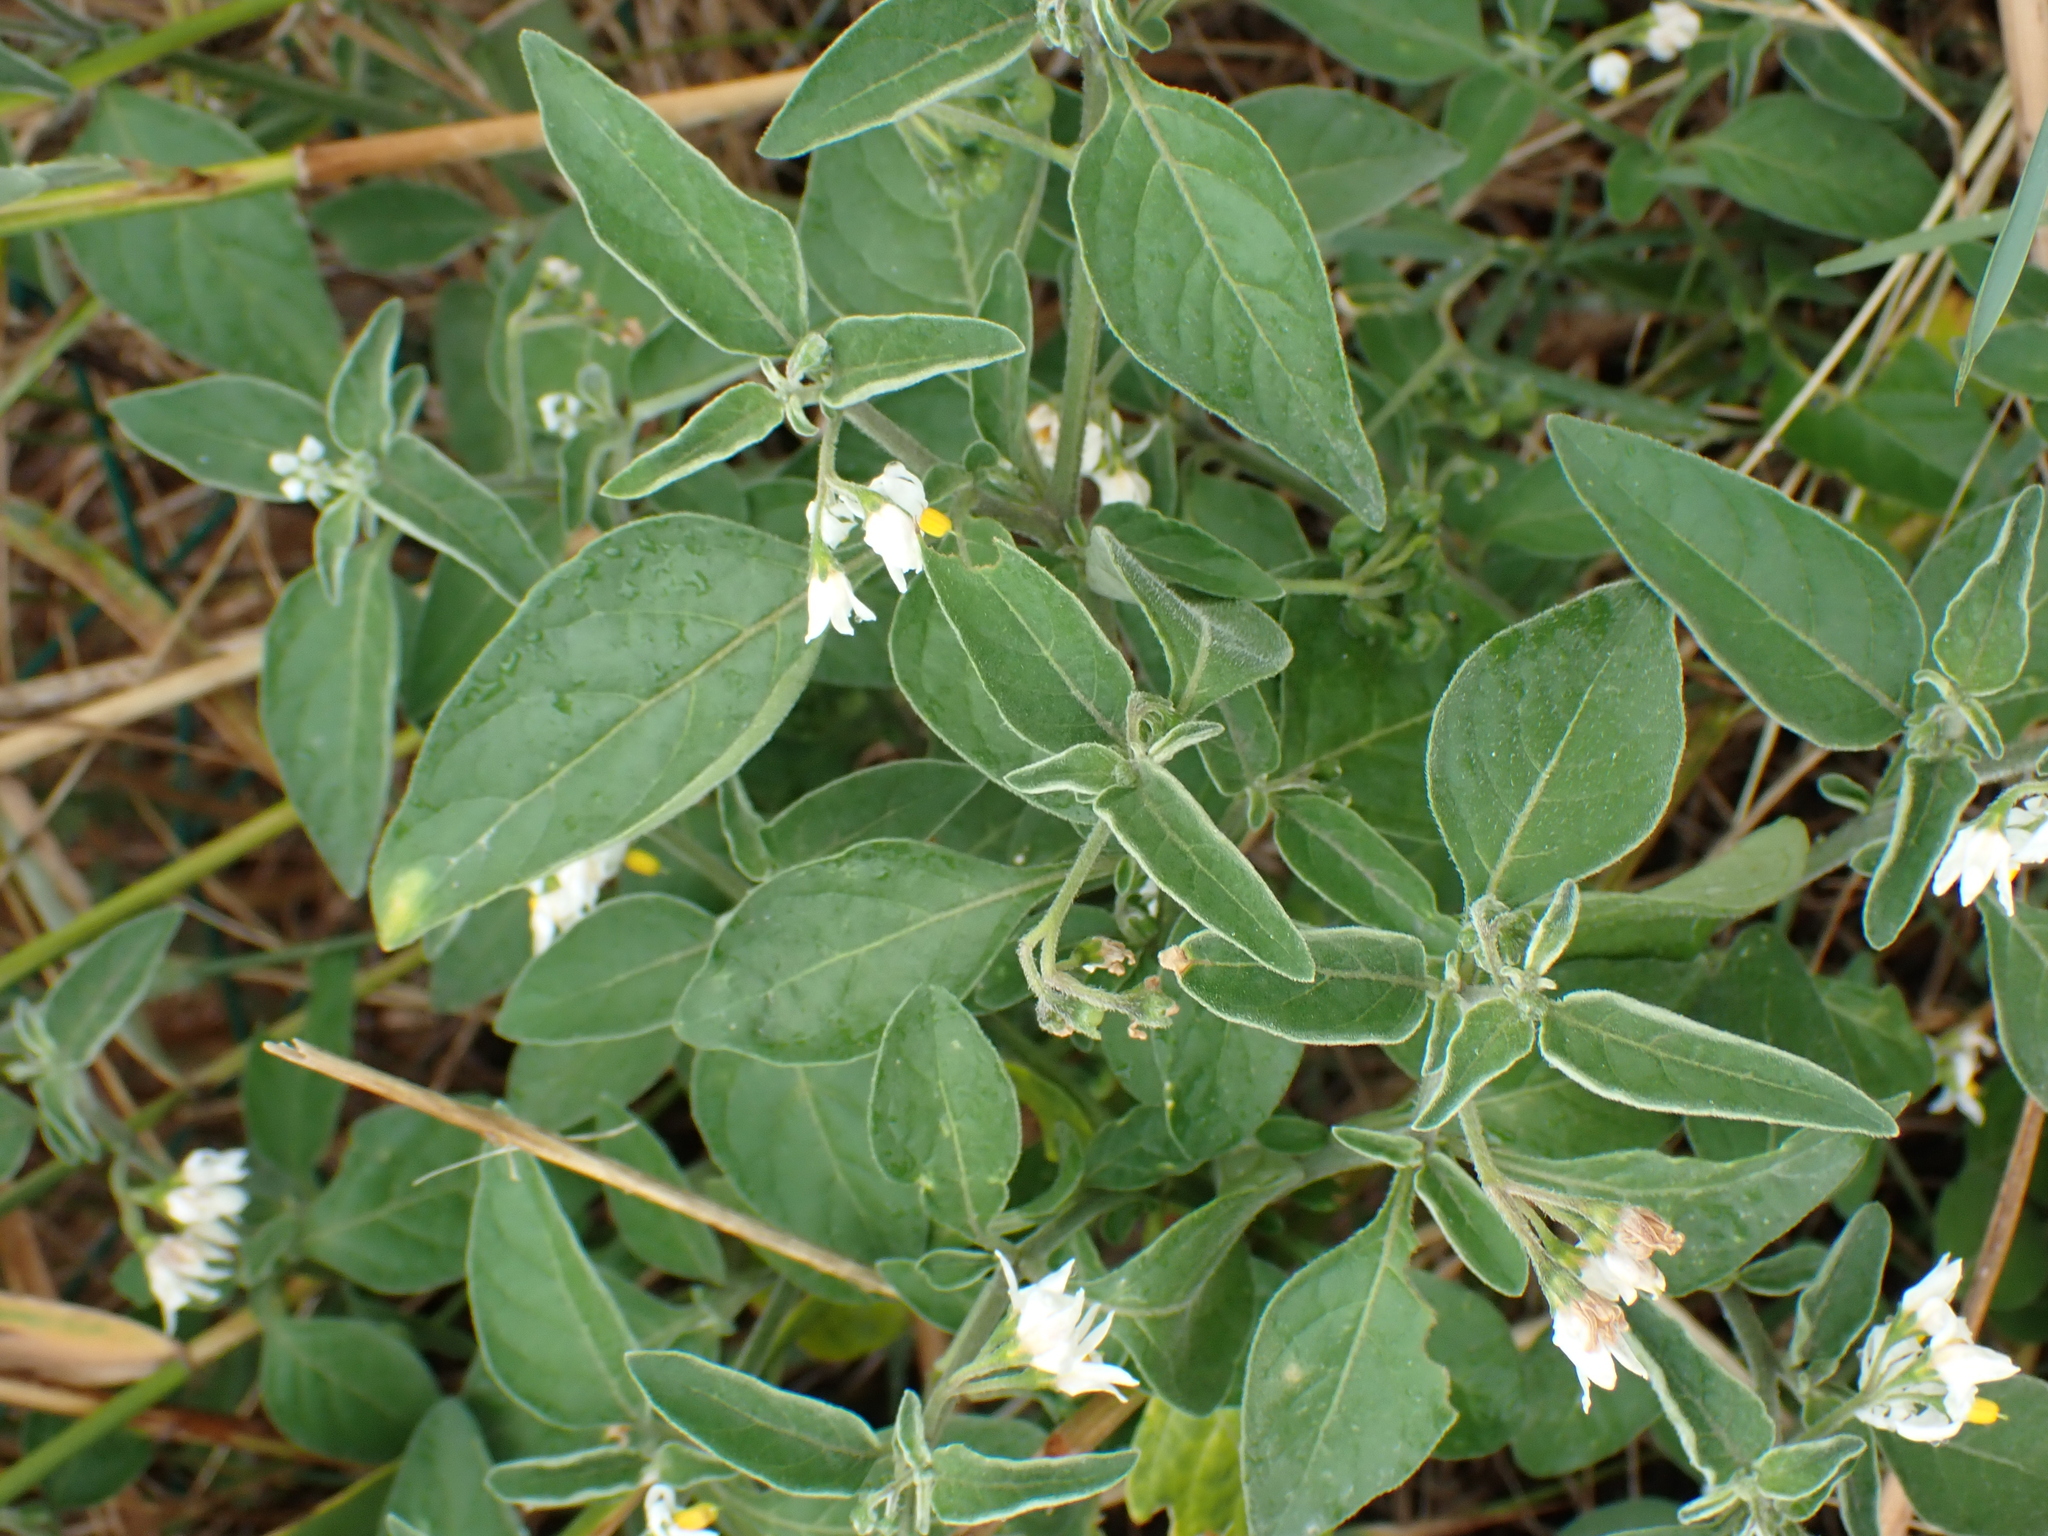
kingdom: Plantae
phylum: Tracheophyta
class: Magnoliopsida
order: Solanales
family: Solanaceae
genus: Solanum
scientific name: Solanum chenopodioides
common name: Tall nightshade
